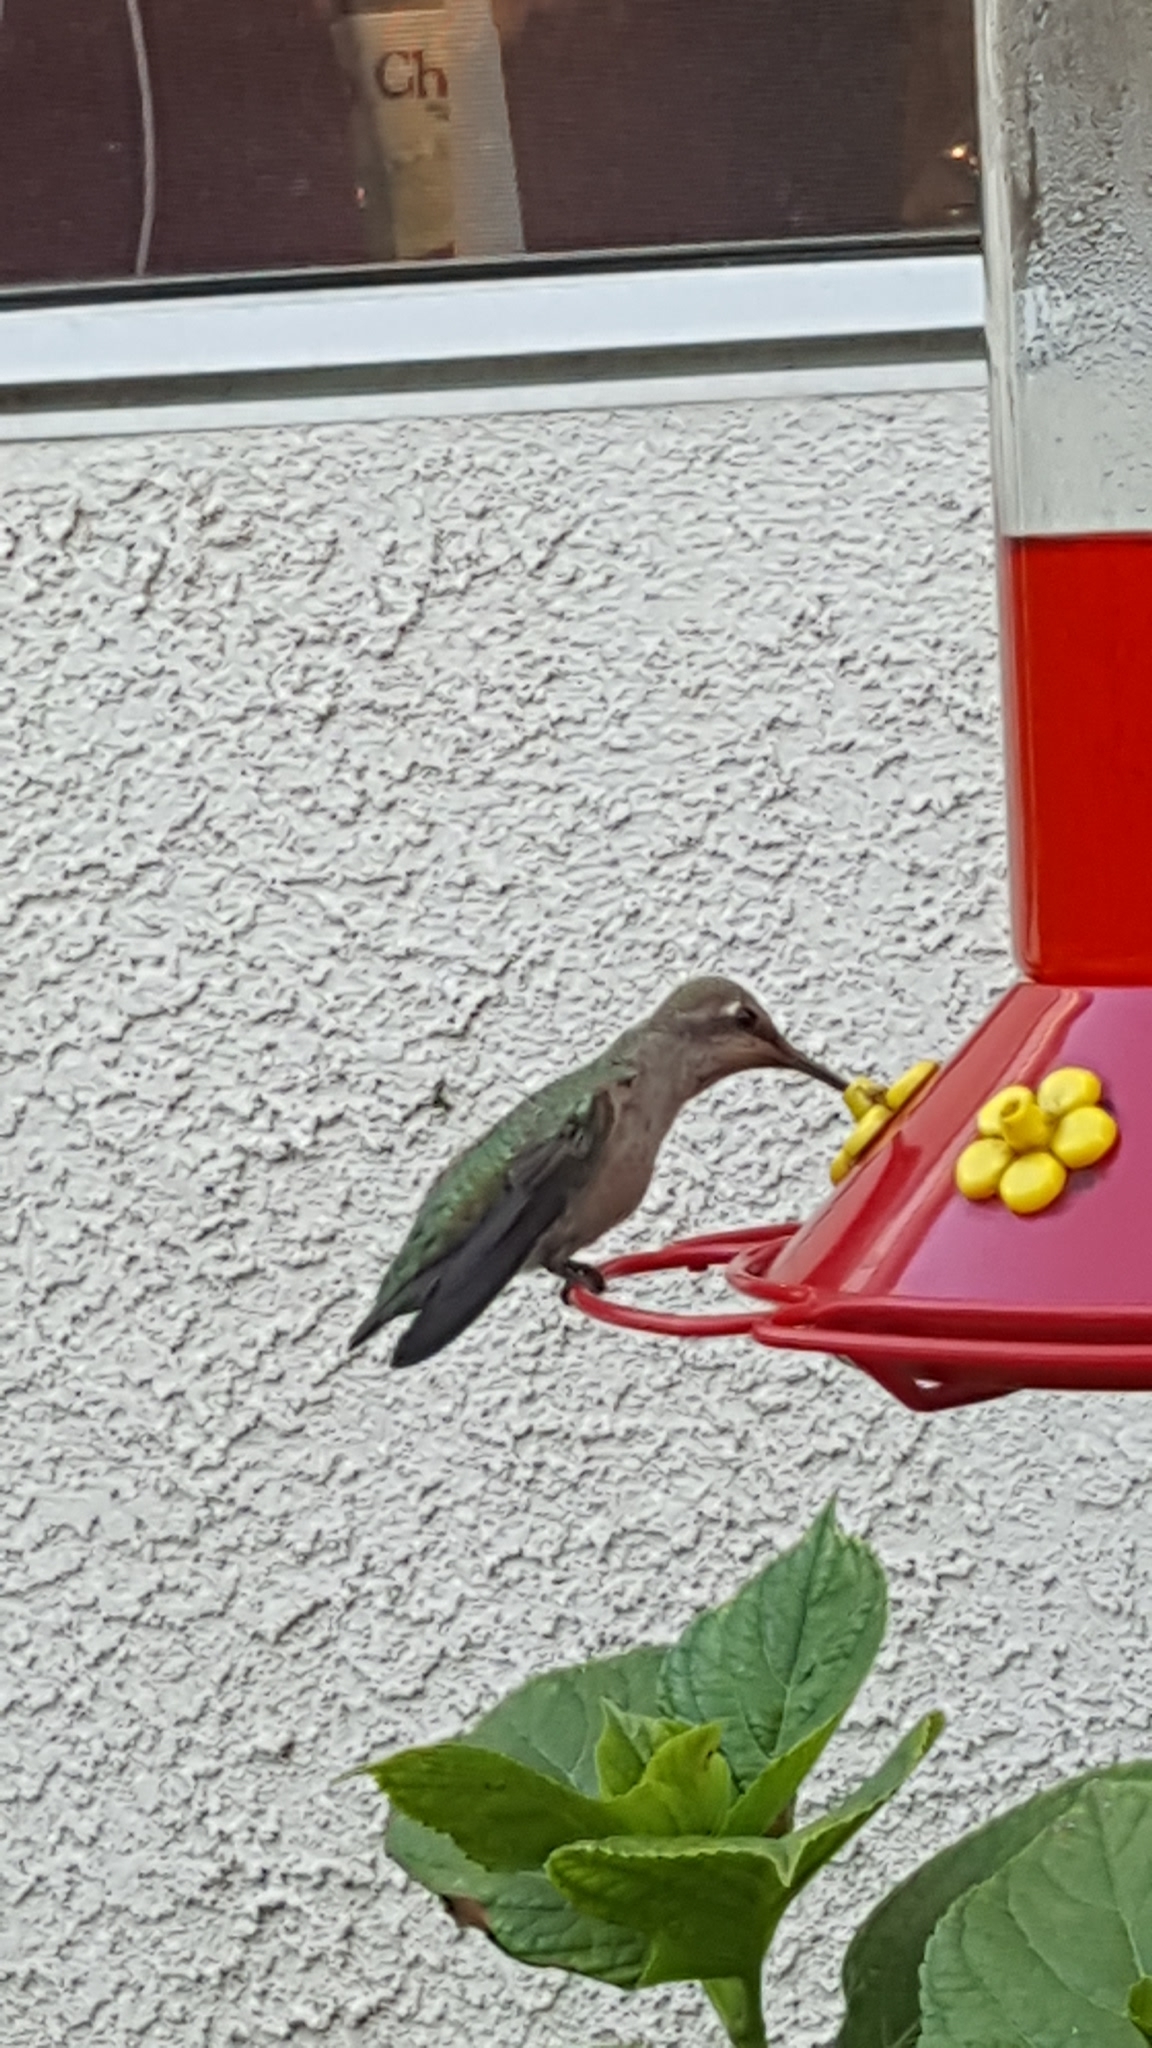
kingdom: Animalia
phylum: Chordata
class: Aves
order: Apodiformes
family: Trochilidae
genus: Calypte
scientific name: Calypte anna
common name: Anna's hummingbird
